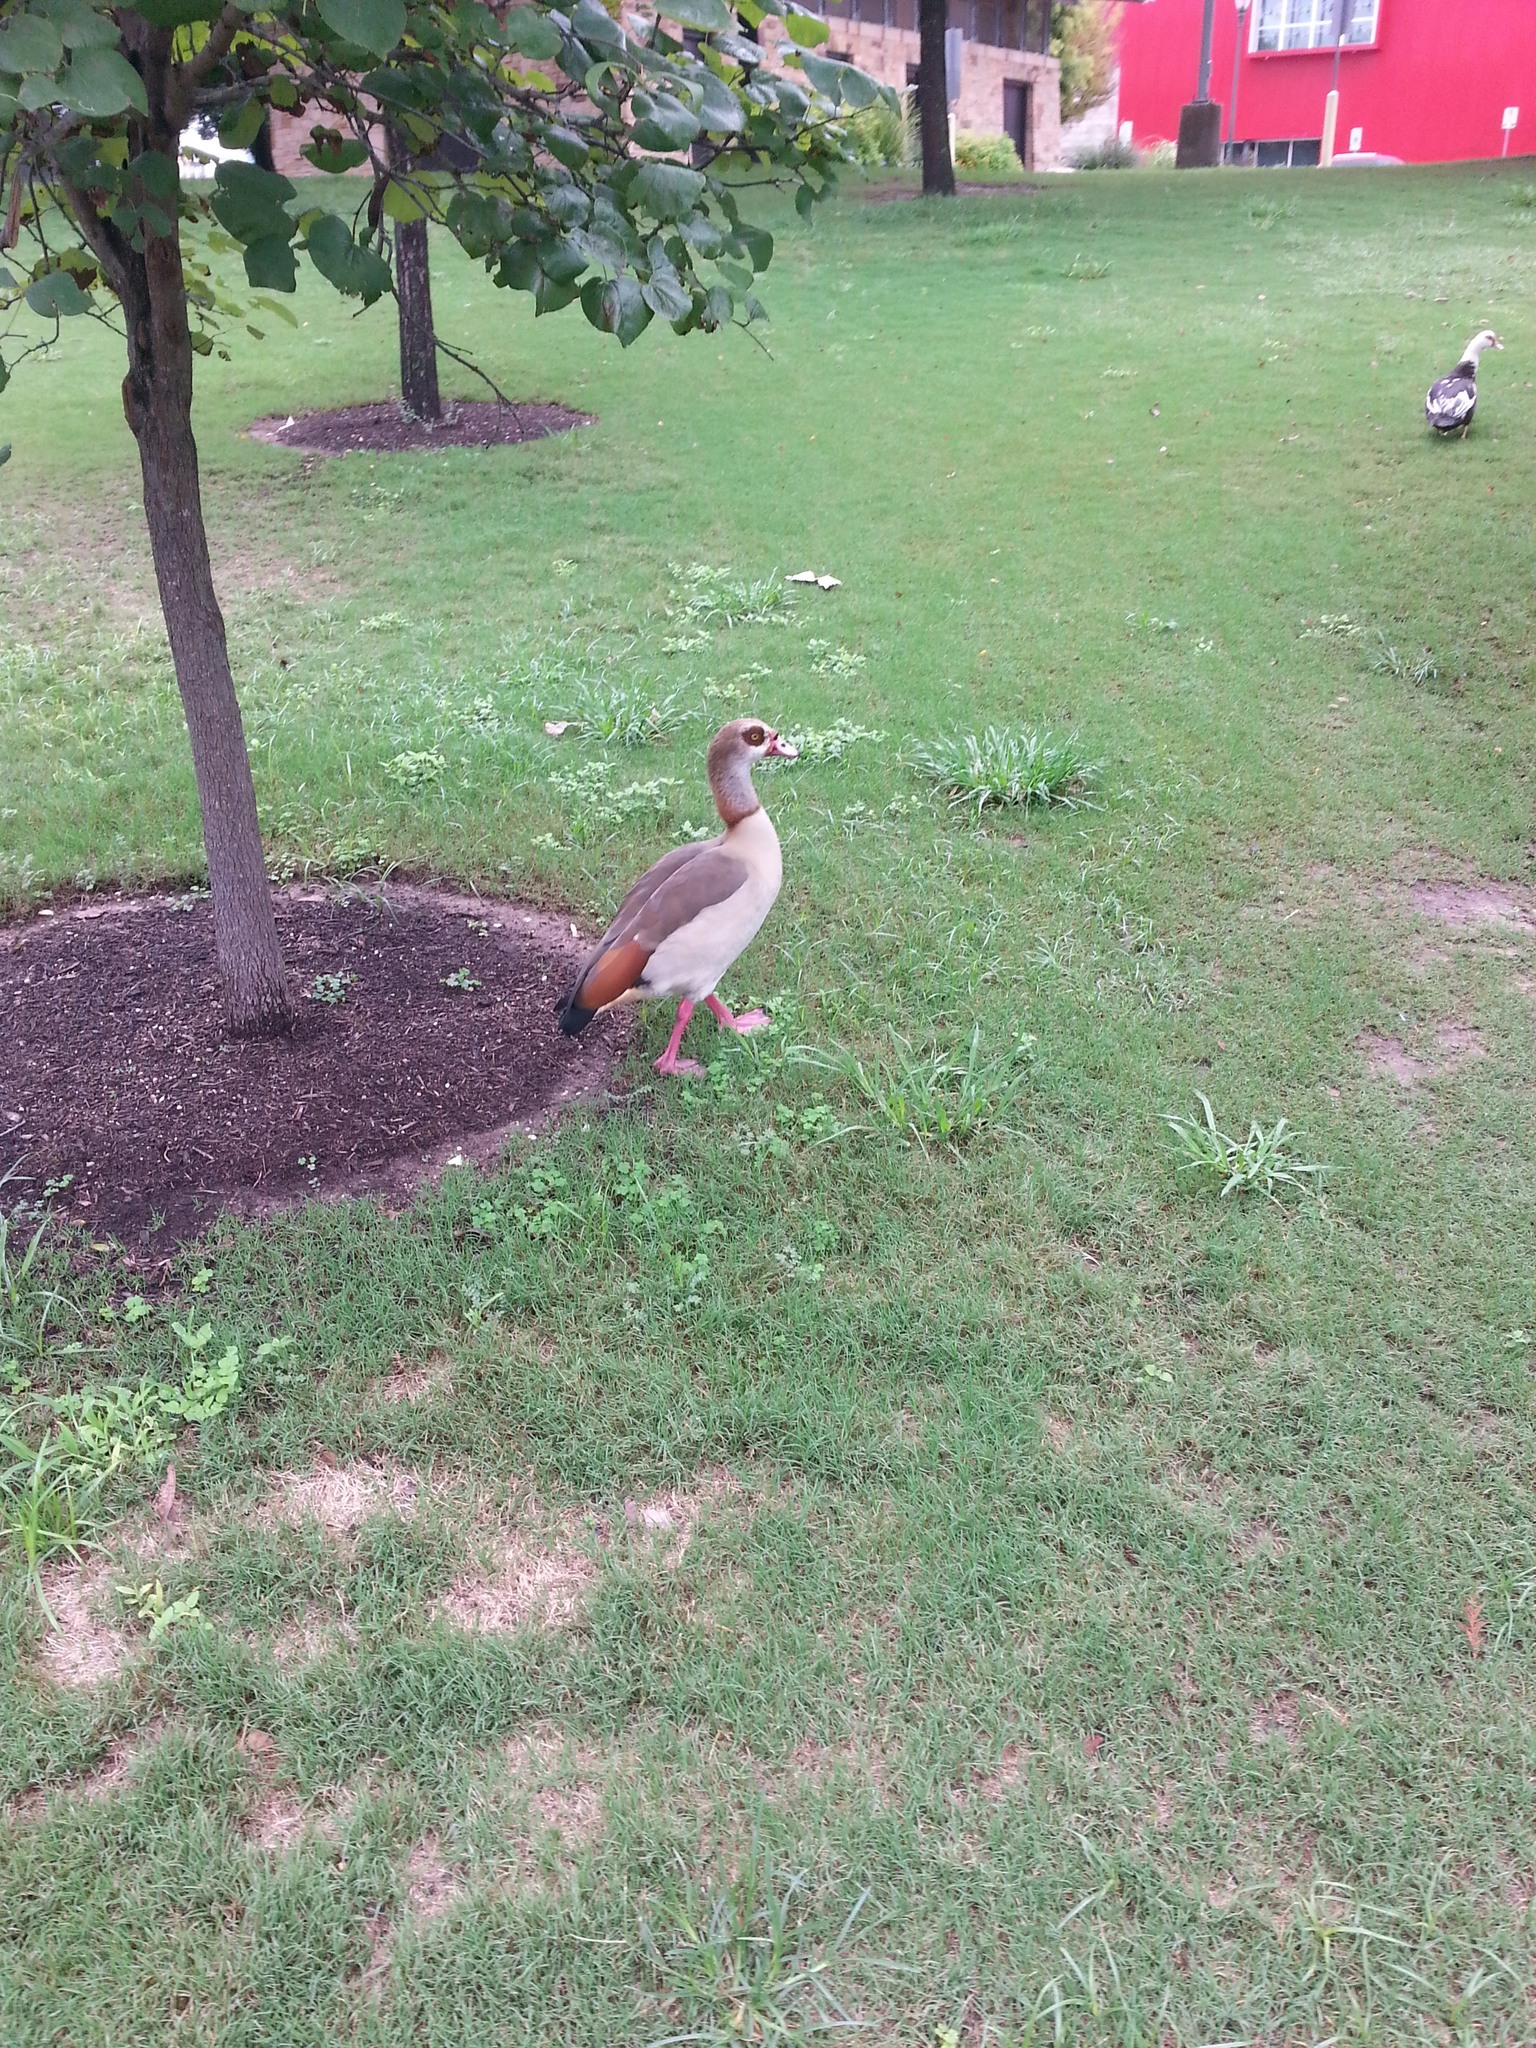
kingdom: Animalia
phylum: Chordata
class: Aves
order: Anseriformes
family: Anatidae
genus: Alopochen
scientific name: Alopochen aegyptiaca
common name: Egyptian goose
